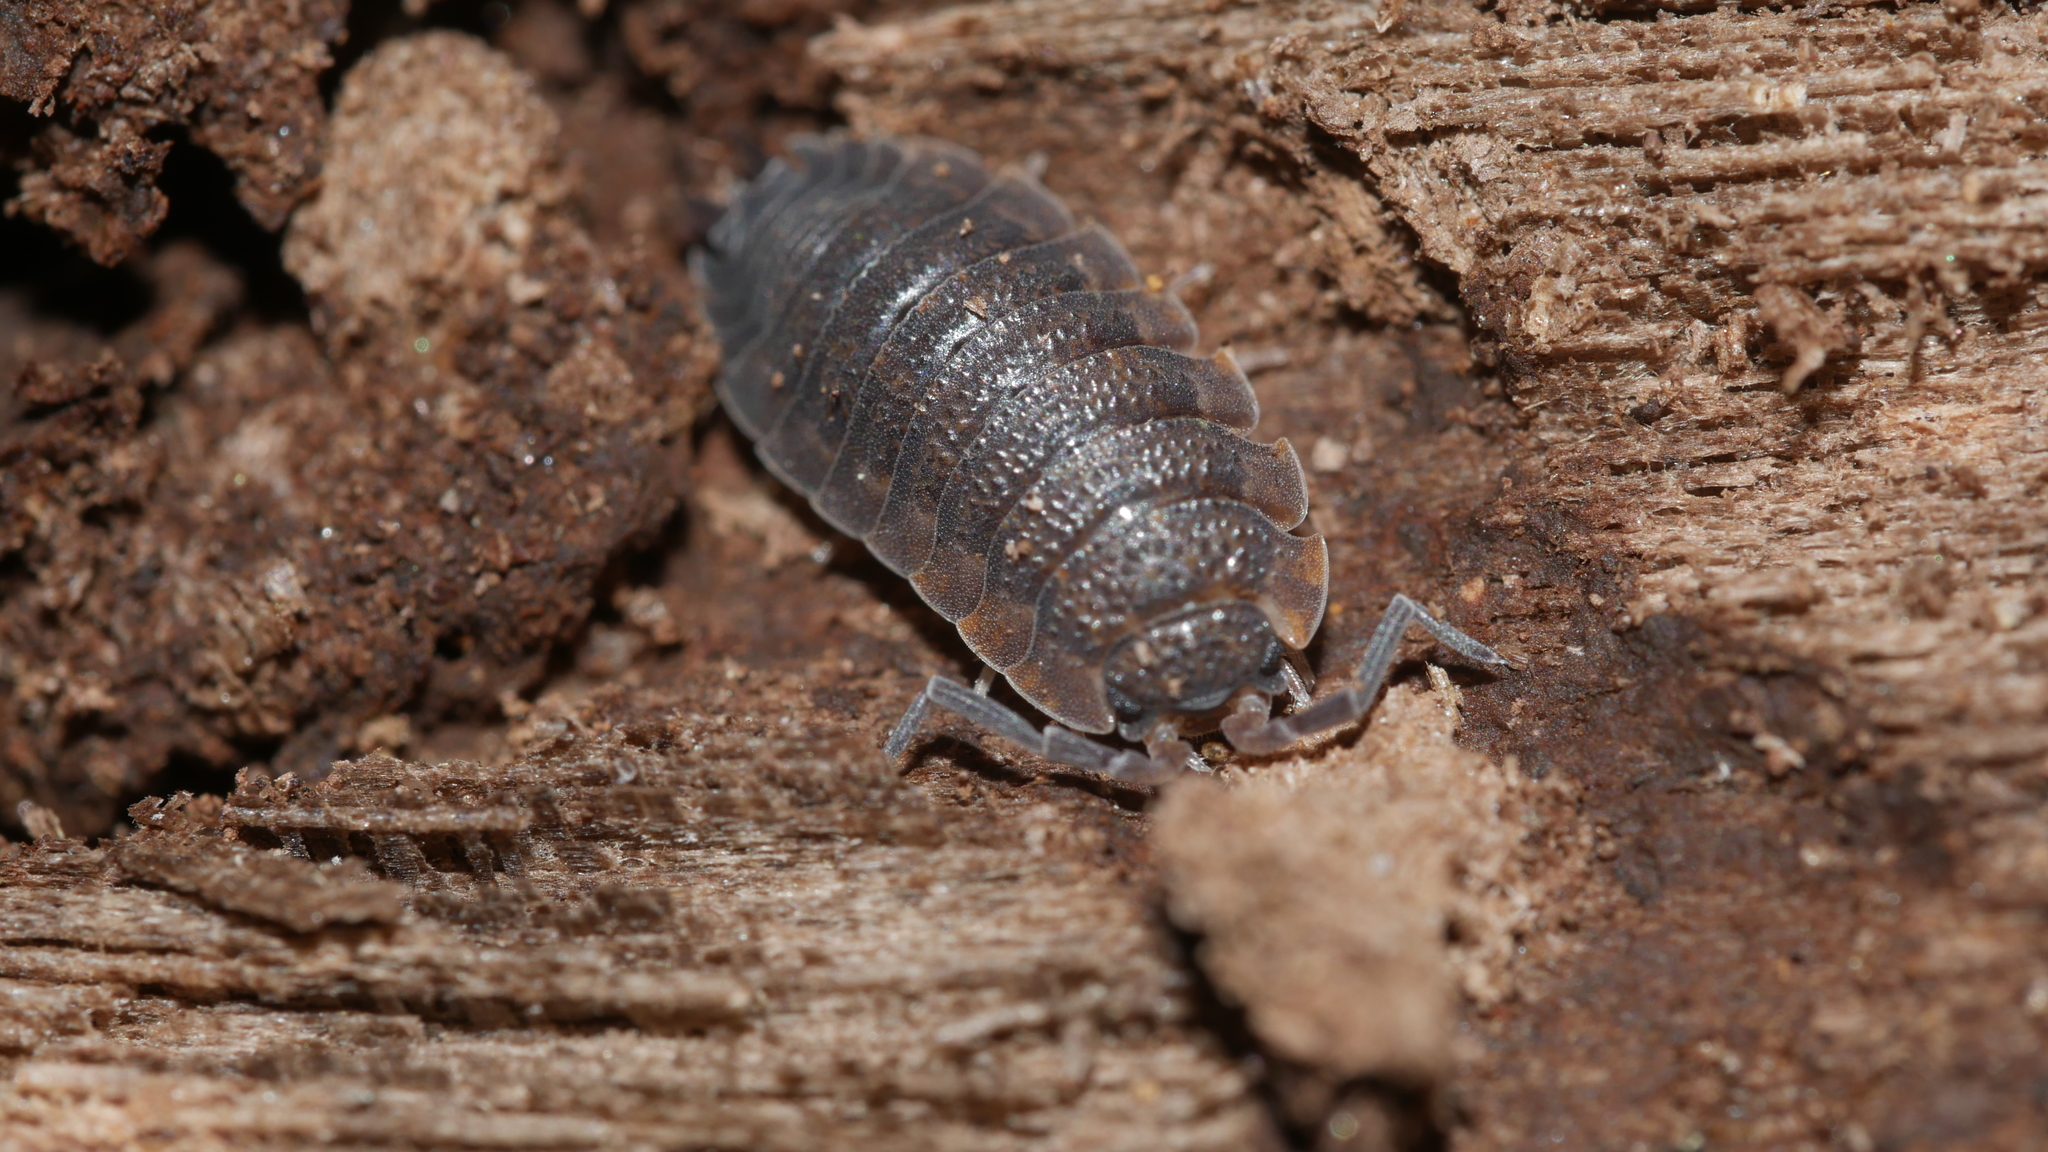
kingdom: Animalia
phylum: Arthropoda
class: Malacostraca
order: Isopoda
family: Porcellionidae
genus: Porcellio
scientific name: Porcellio scaber
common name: Common rough woodlouse
